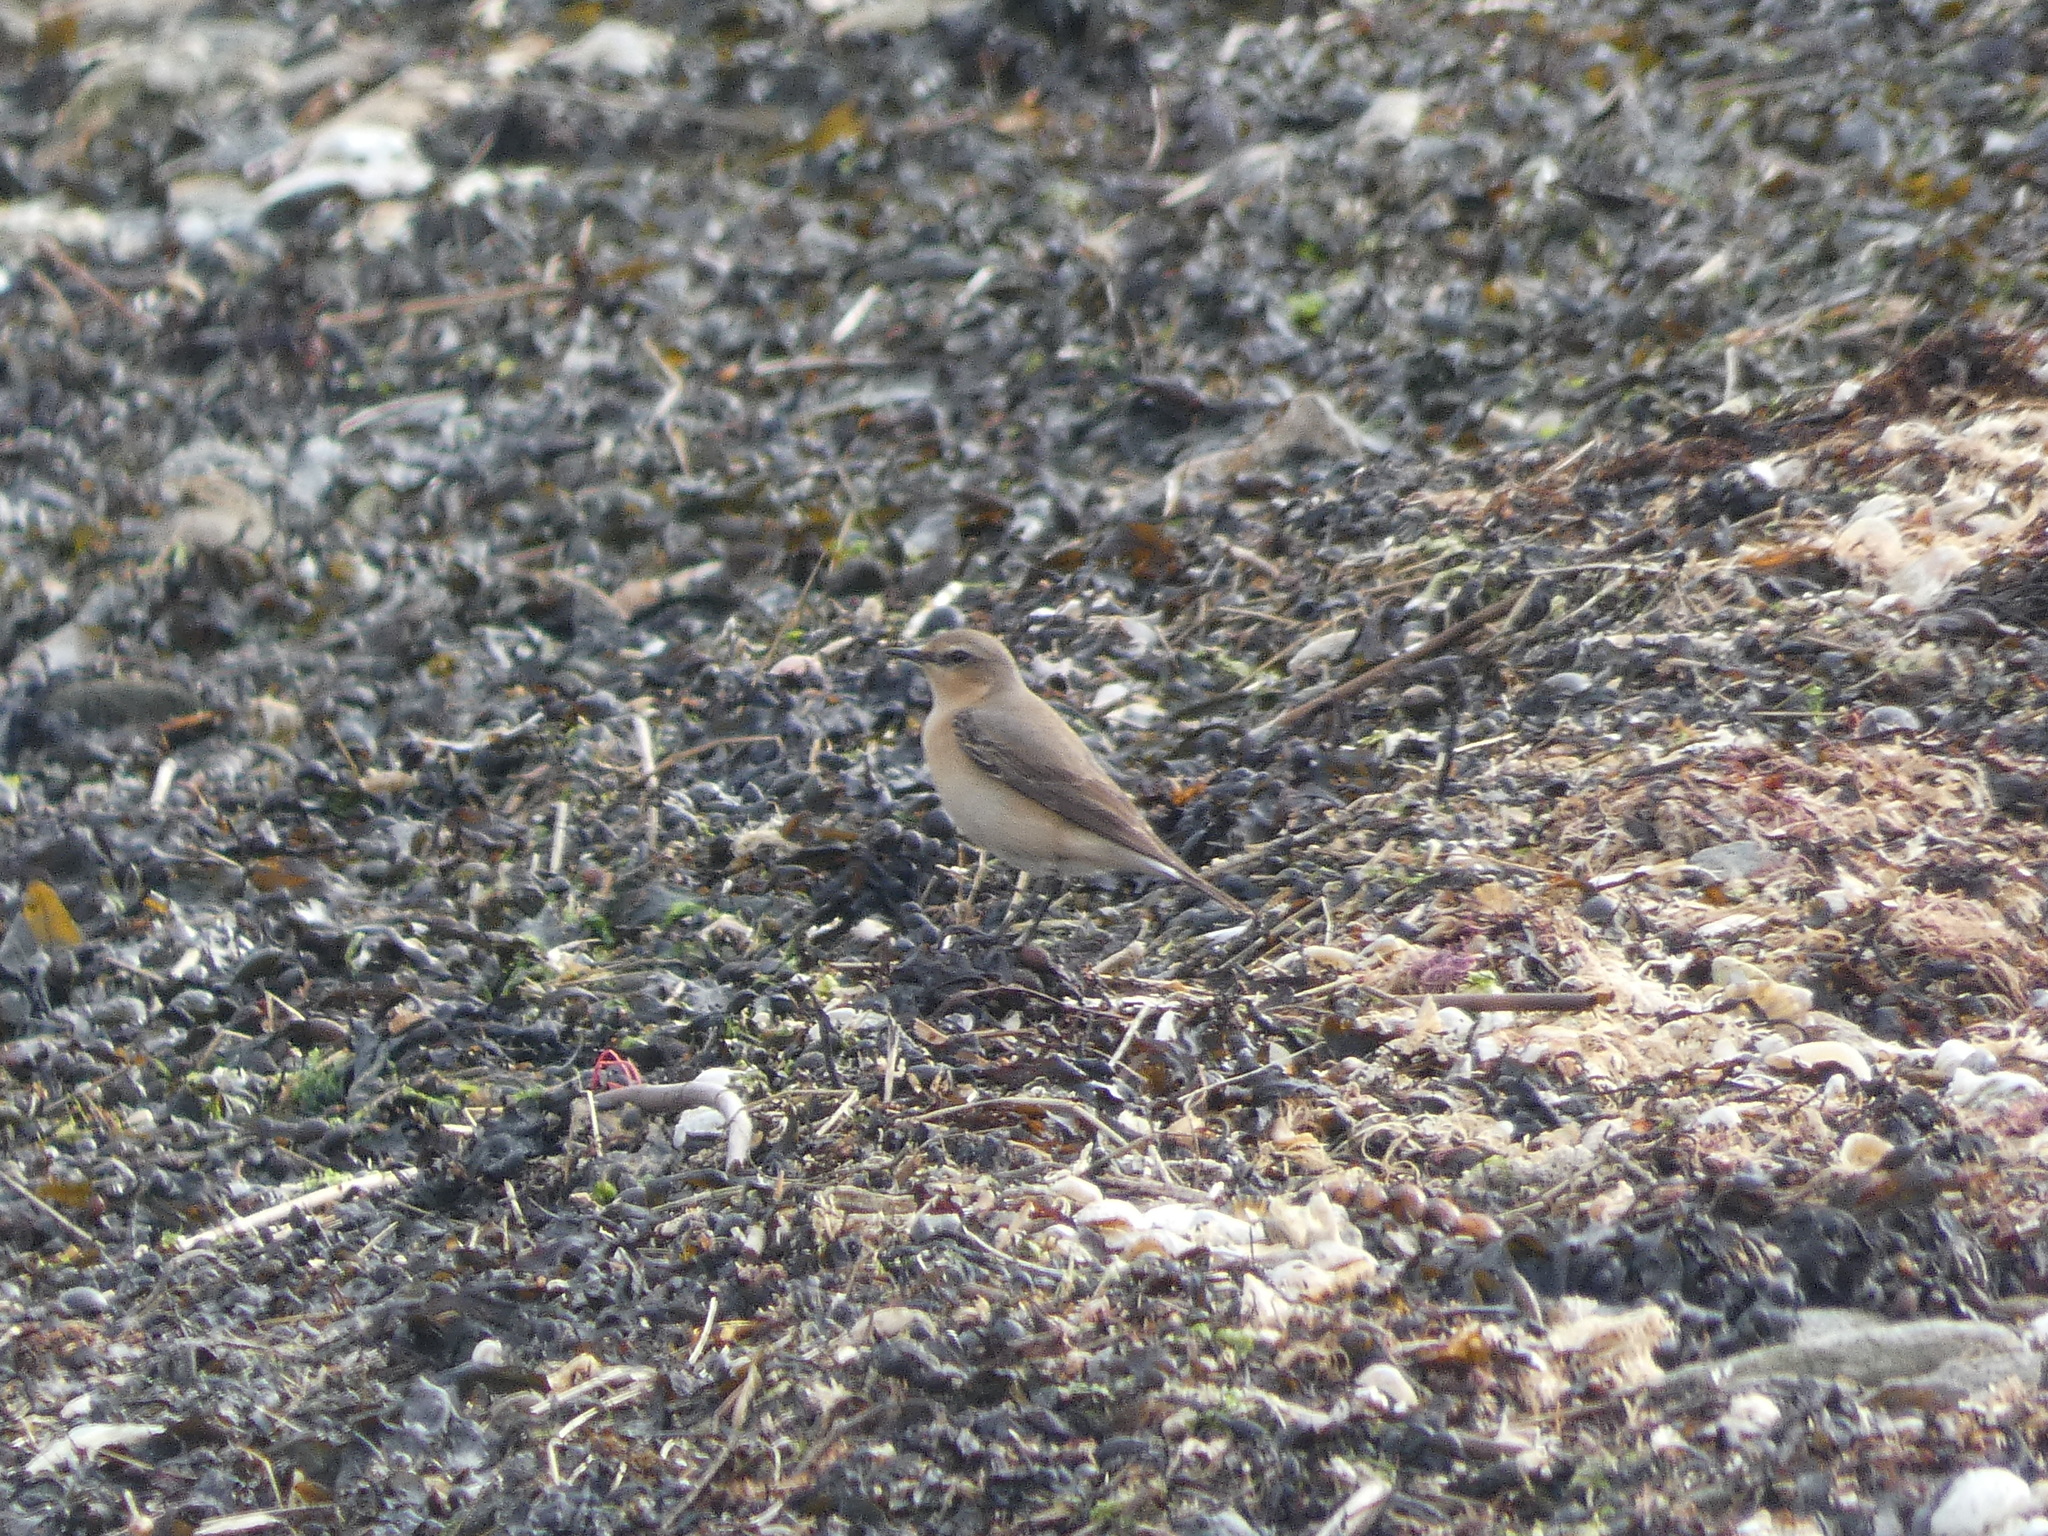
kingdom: Animalia
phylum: Chordata
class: Aves
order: Passeriformes
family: Muscicapidae
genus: Oenanthe
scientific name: Oenanthe oenanthe
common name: Northern wheatear
